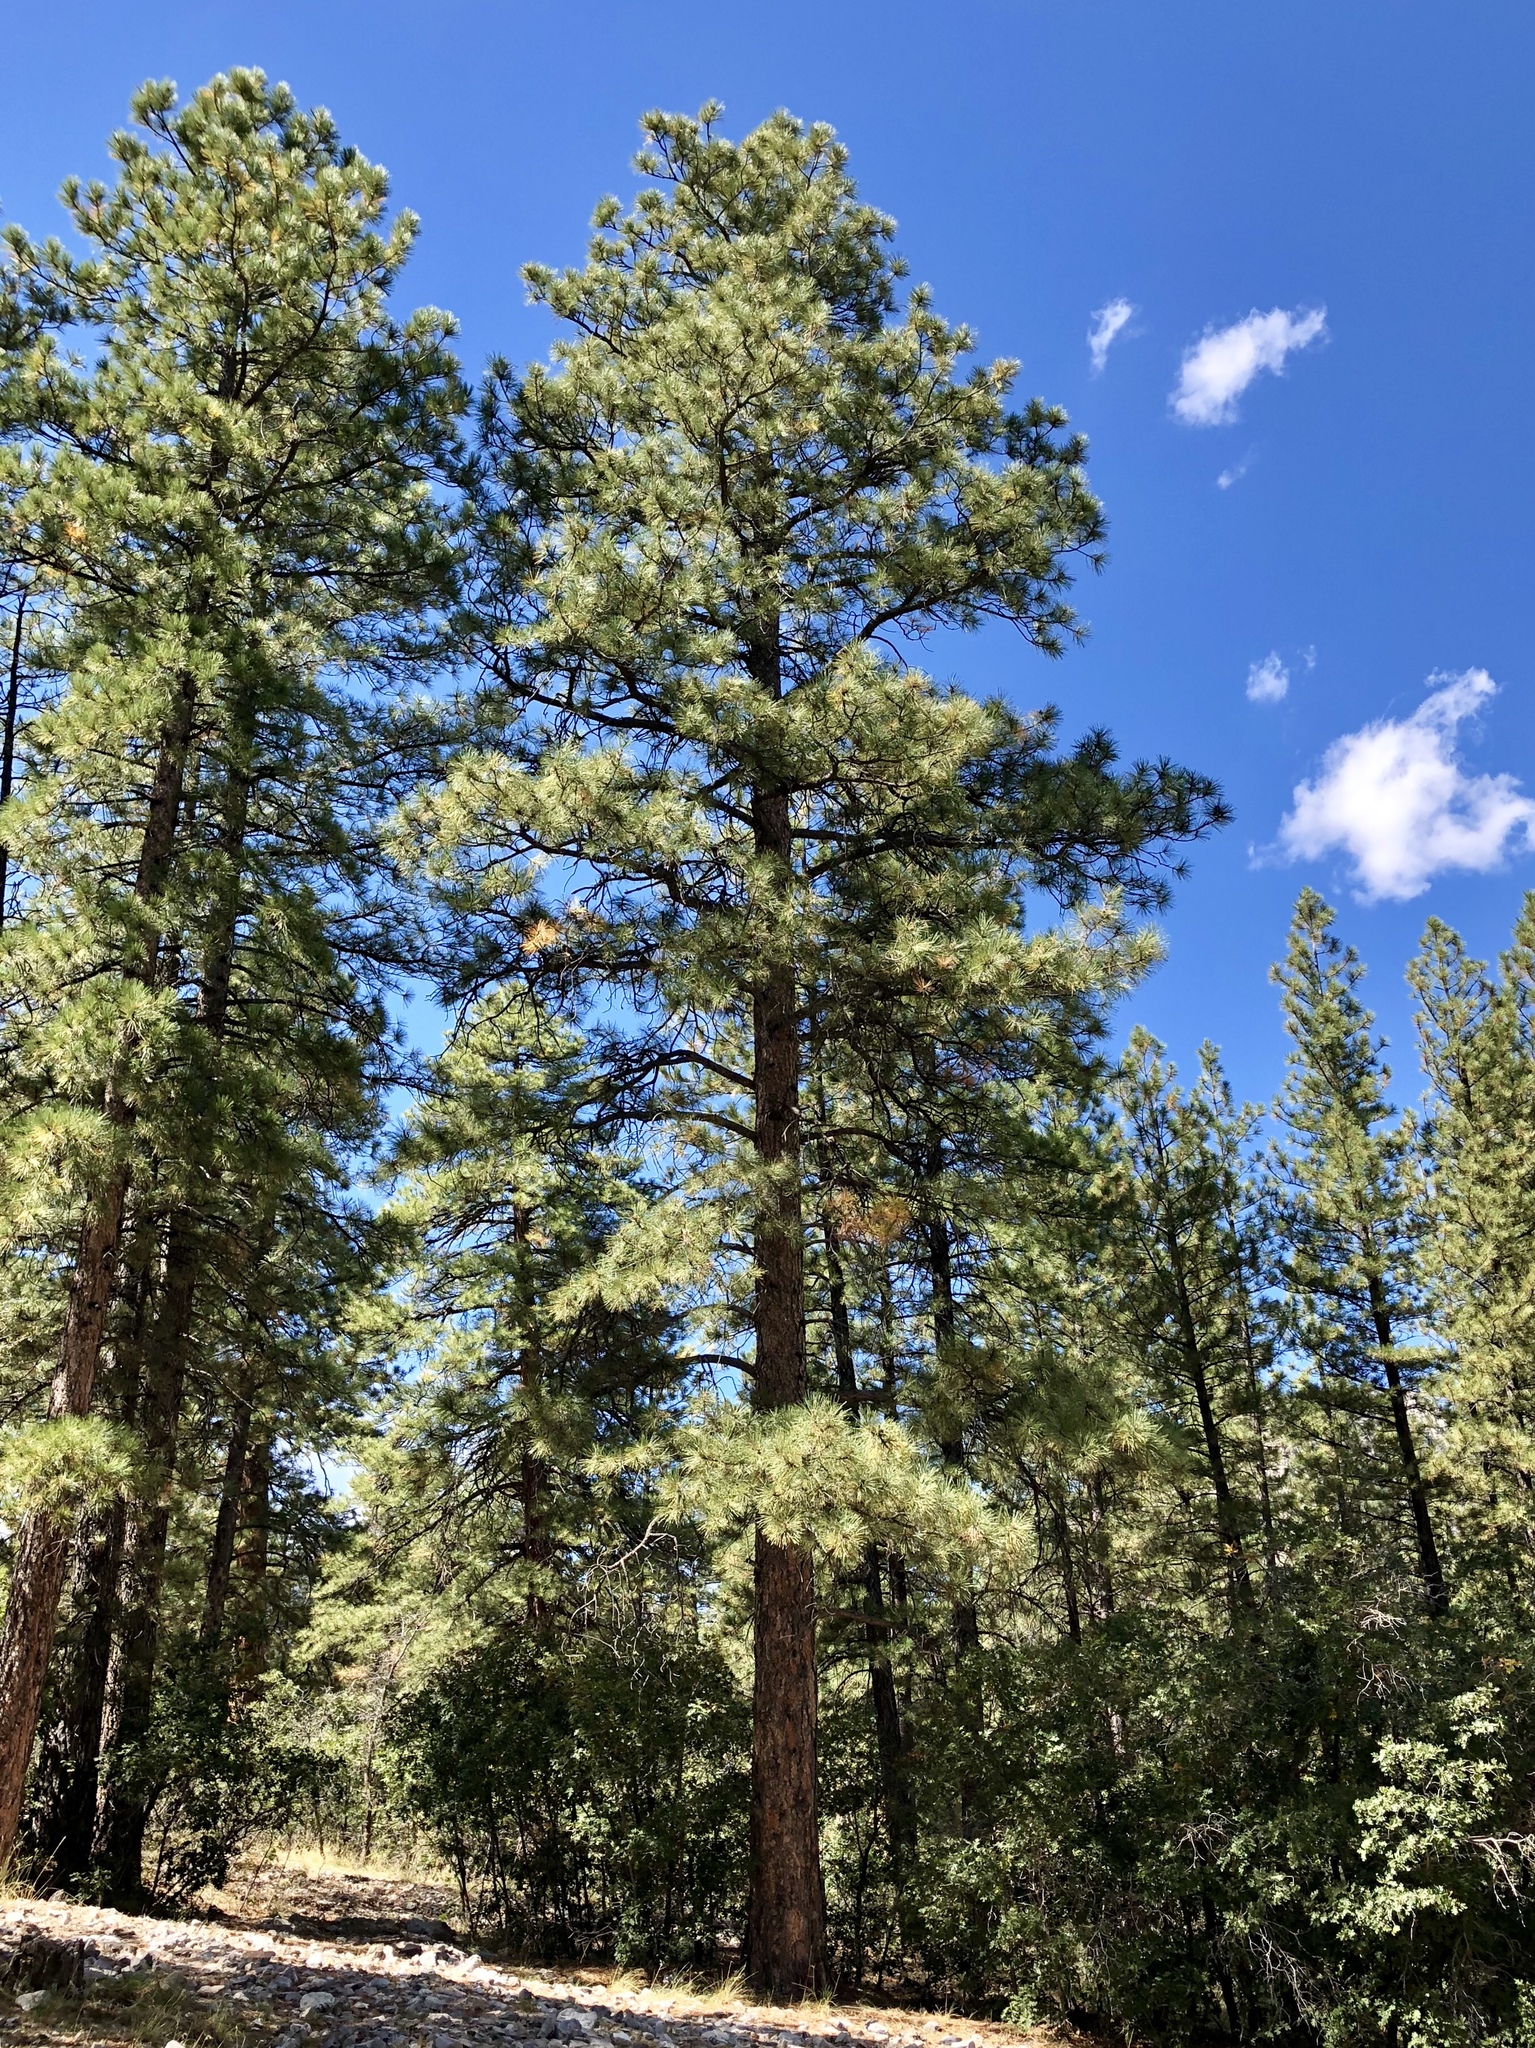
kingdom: Plantae
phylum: Tracheophyta
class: Pinopsida
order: Pinales
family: Pinaceae
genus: Pinus
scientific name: Pinus ponderosa
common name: Western yellow-pine
